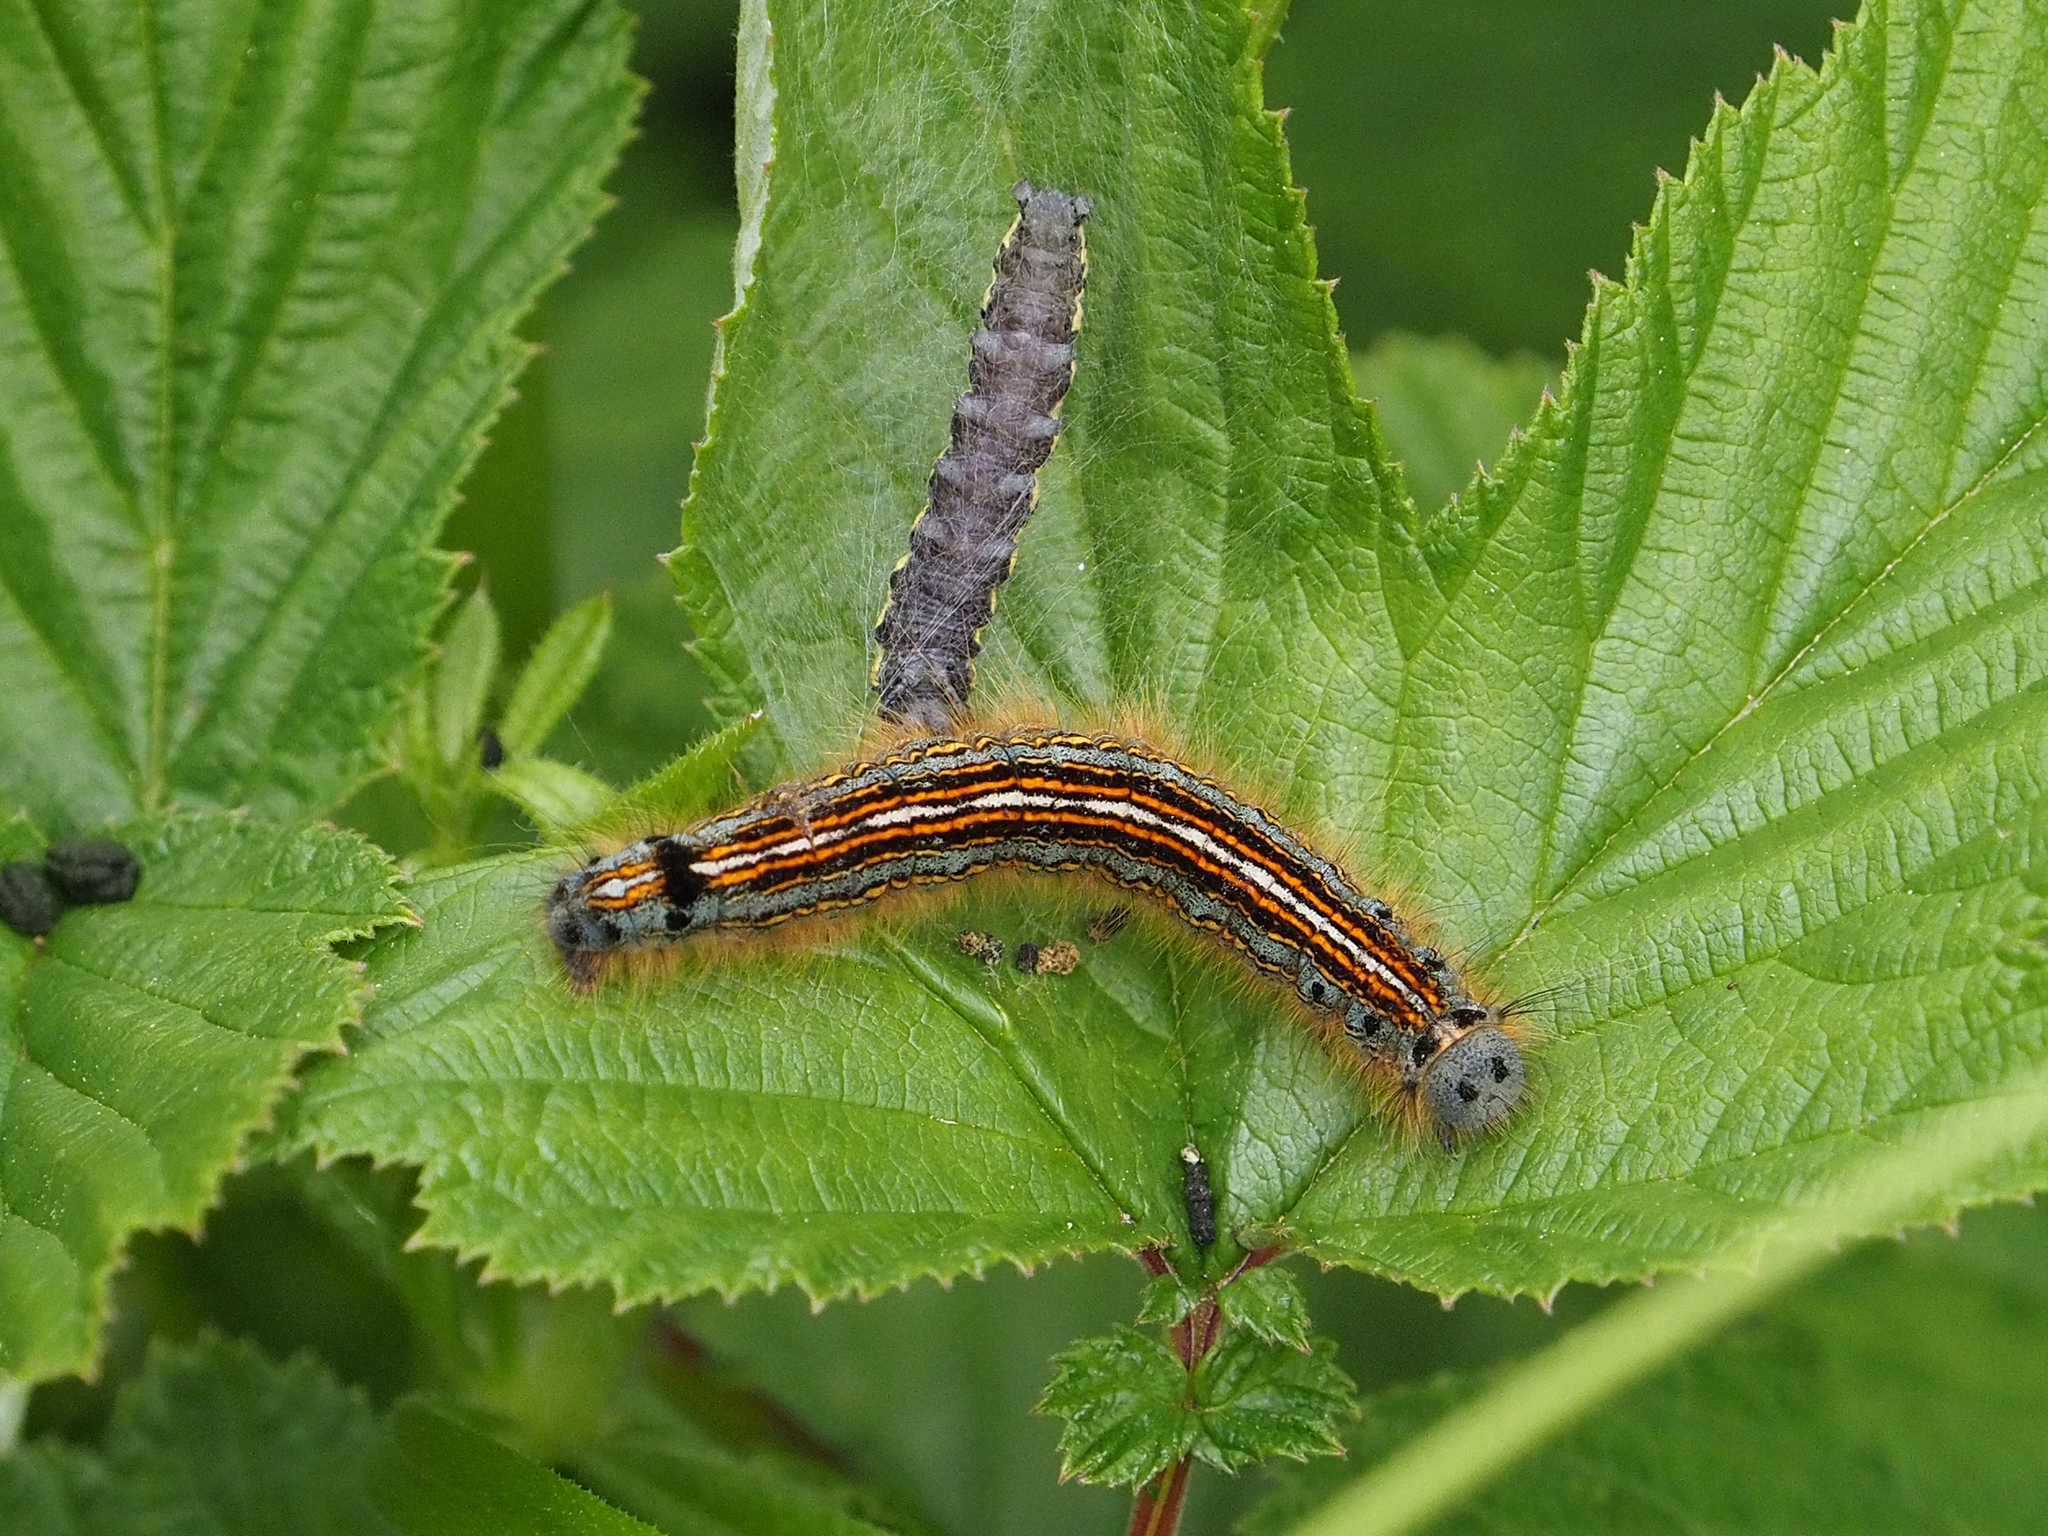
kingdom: Animalia
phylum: Arthropoda
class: Insecta
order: Lepidoptera
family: Lasiocampidae
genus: Malacosoma
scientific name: Malacosoma neustria
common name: The lackey
